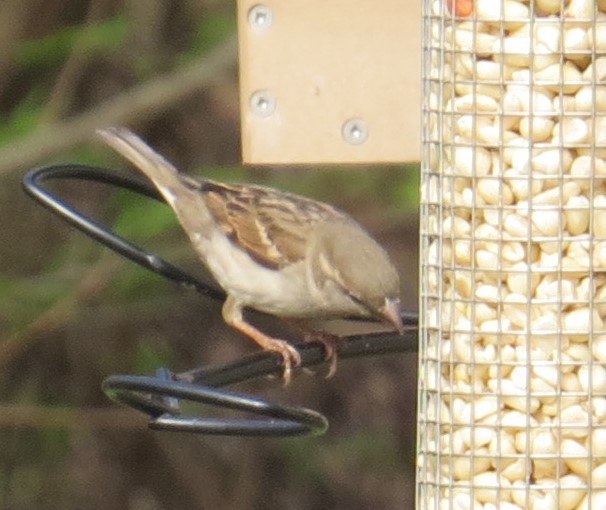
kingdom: Animalia
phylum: Chordata
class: Aves
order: Passeriformes
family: Passeridae
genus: Passer
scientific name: Passer domesticus
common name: House sparrow
